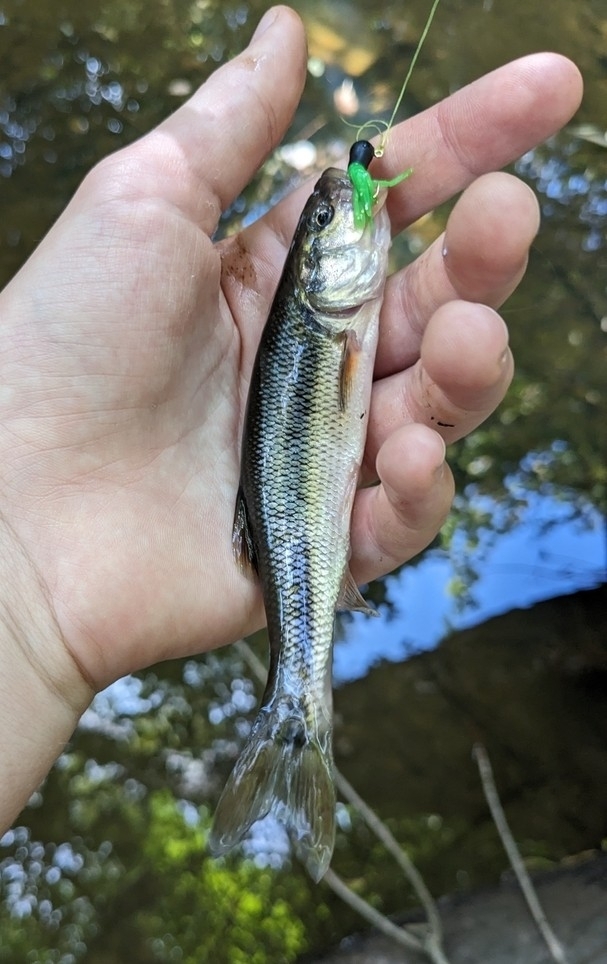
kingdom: Animalia
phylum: Chordata
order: Cypriniformes
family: Cyprinidae
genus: Semotilus
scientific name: Semotilus atromaculatus
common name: Creek chub
